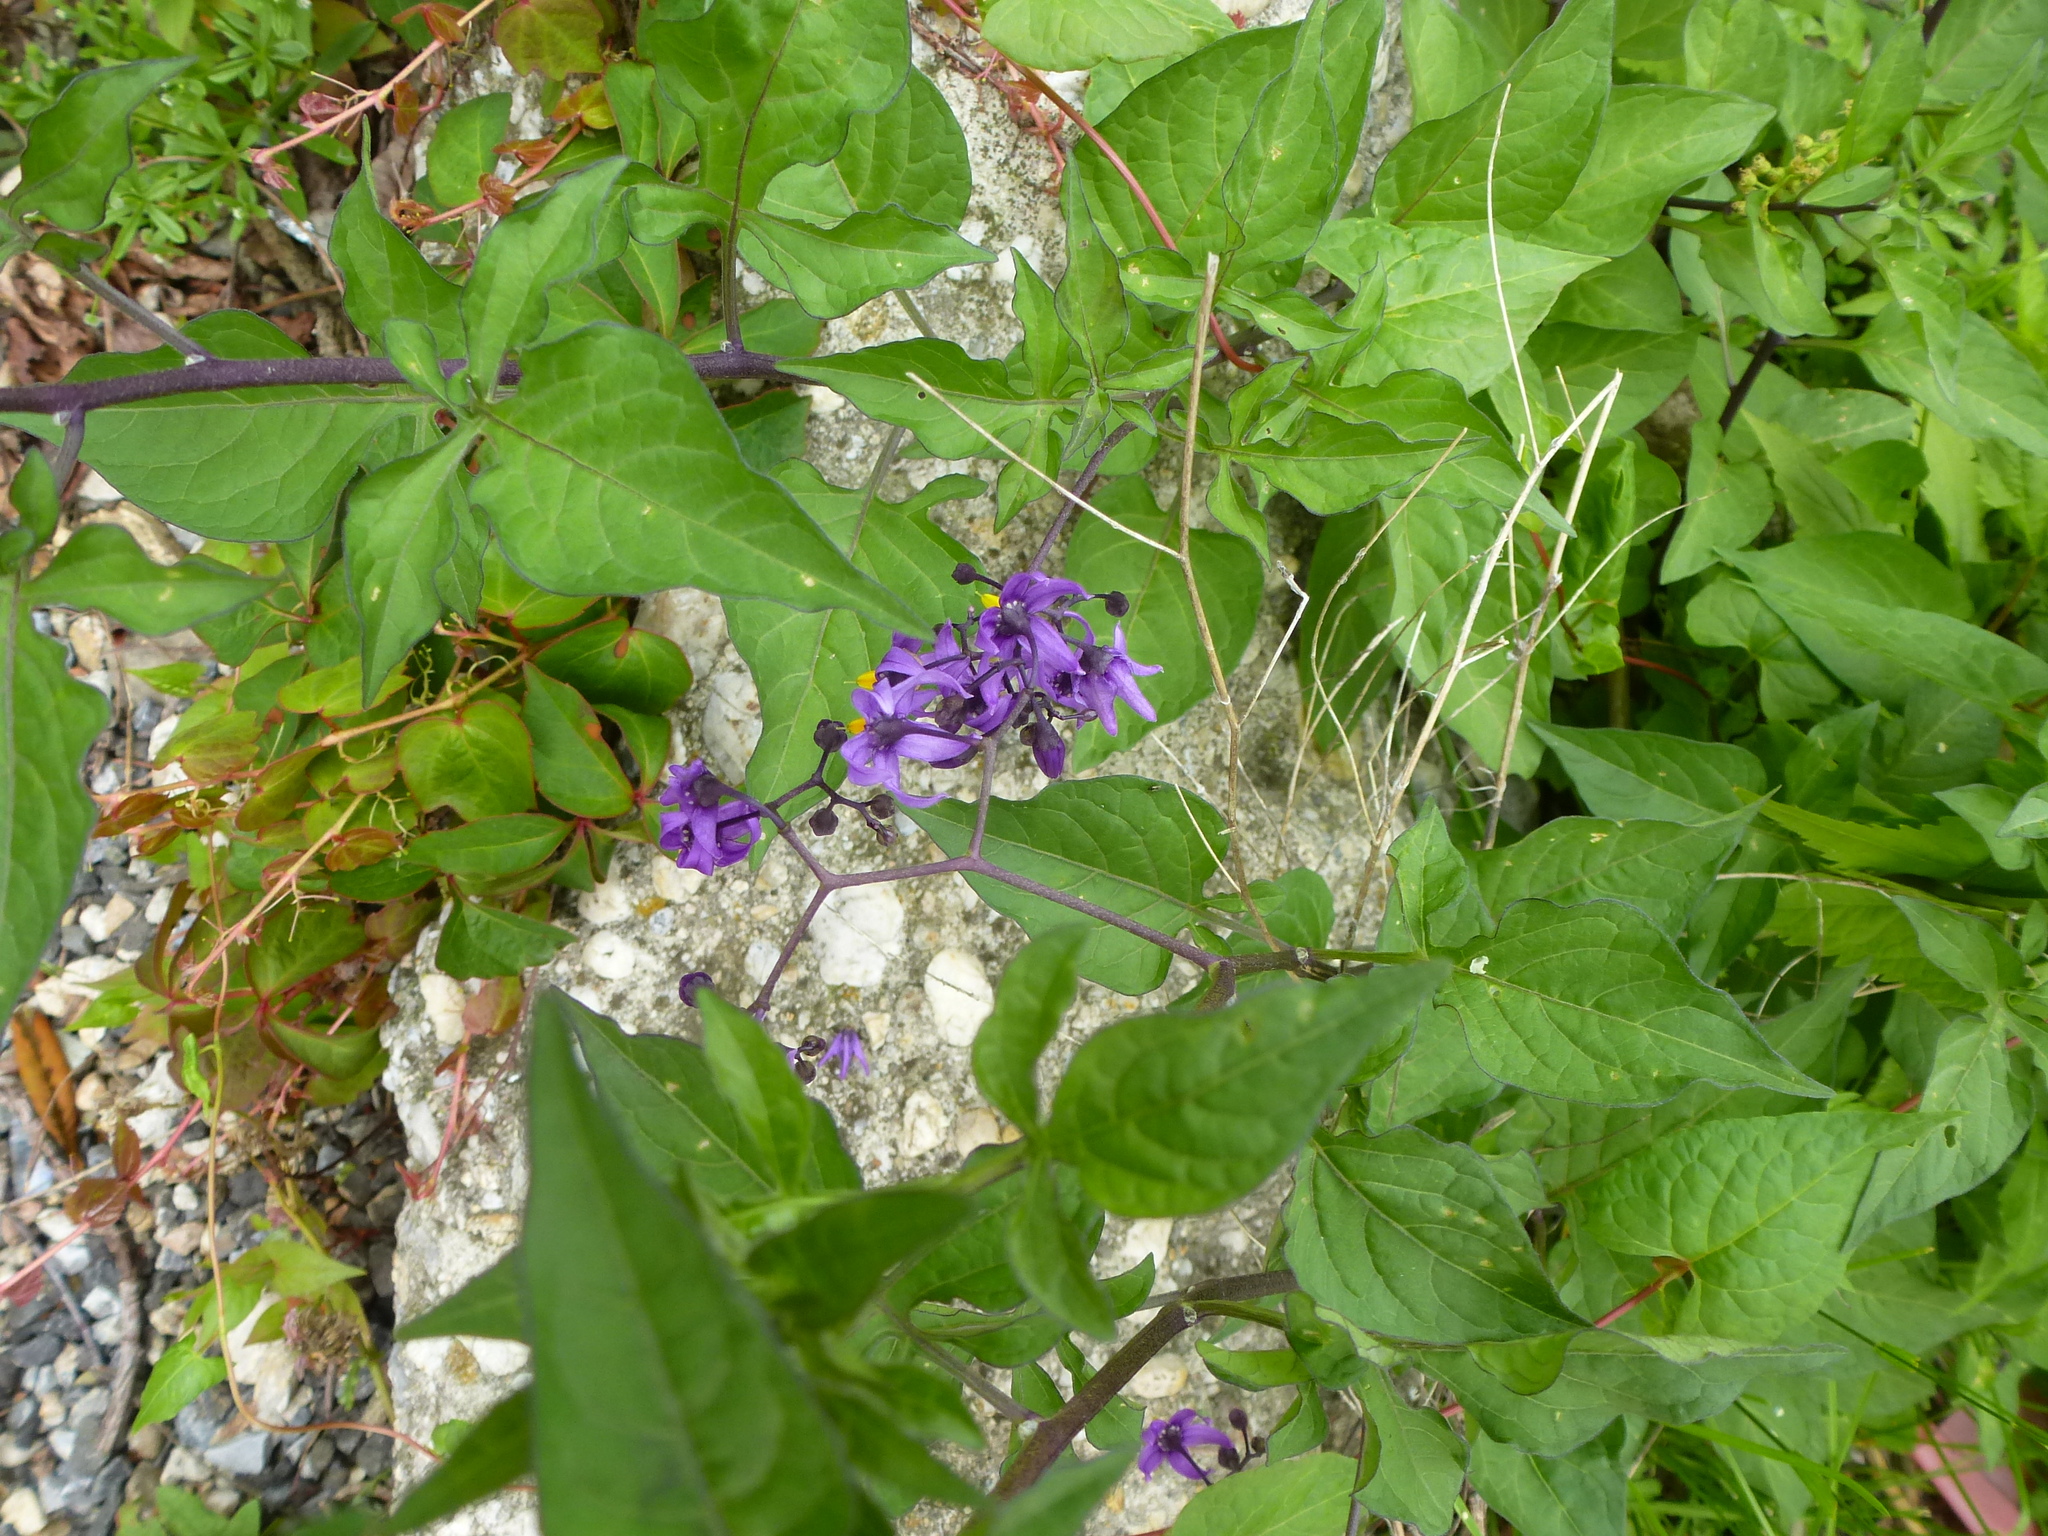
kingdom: Plantae
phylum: Tracheophyta
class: Magnoliopsida
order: Solanales
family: Solanaceae
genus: Solanum
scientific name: Solanum dulcamara
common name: Climbing nightshade
